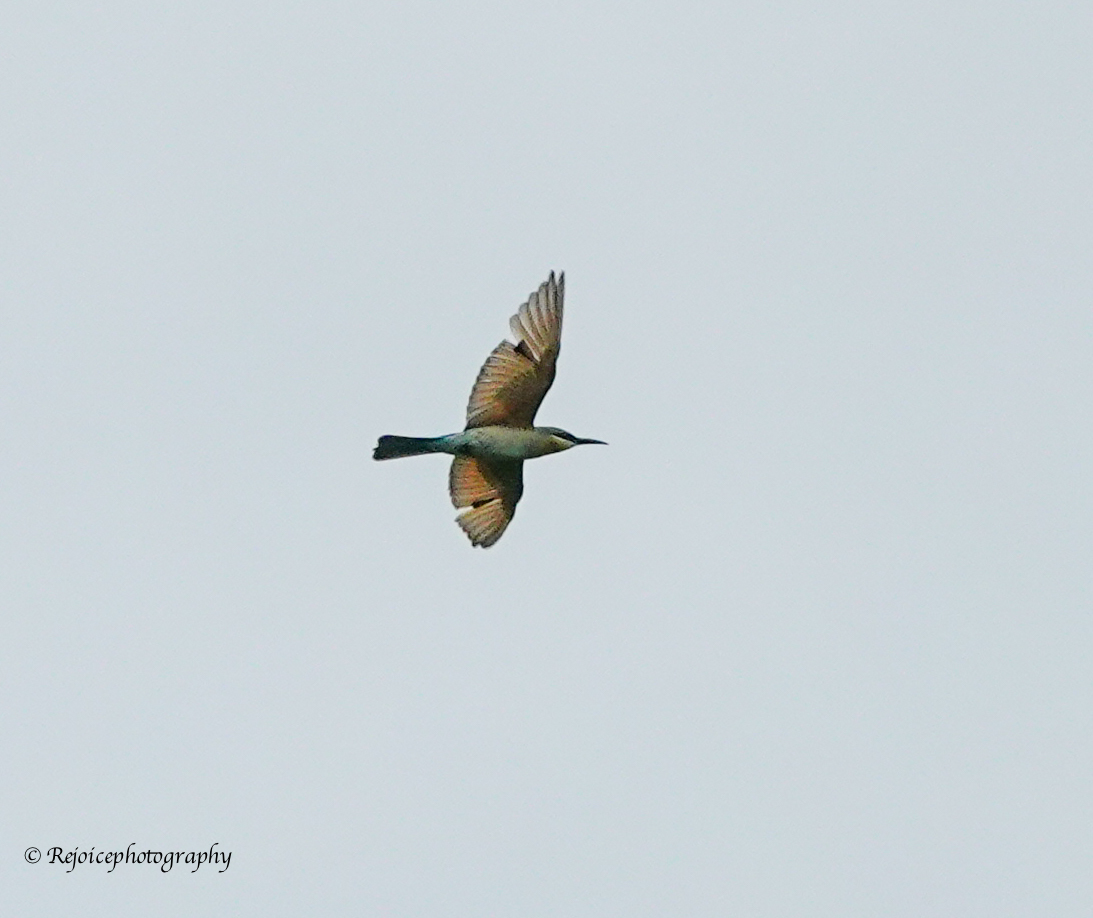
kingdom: Animalia
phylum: Chordata
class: Aves
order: Coraciiformes
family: Meropidae
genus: Merops
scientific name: Merops philippinus
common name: Blue-tailed bee-eater
